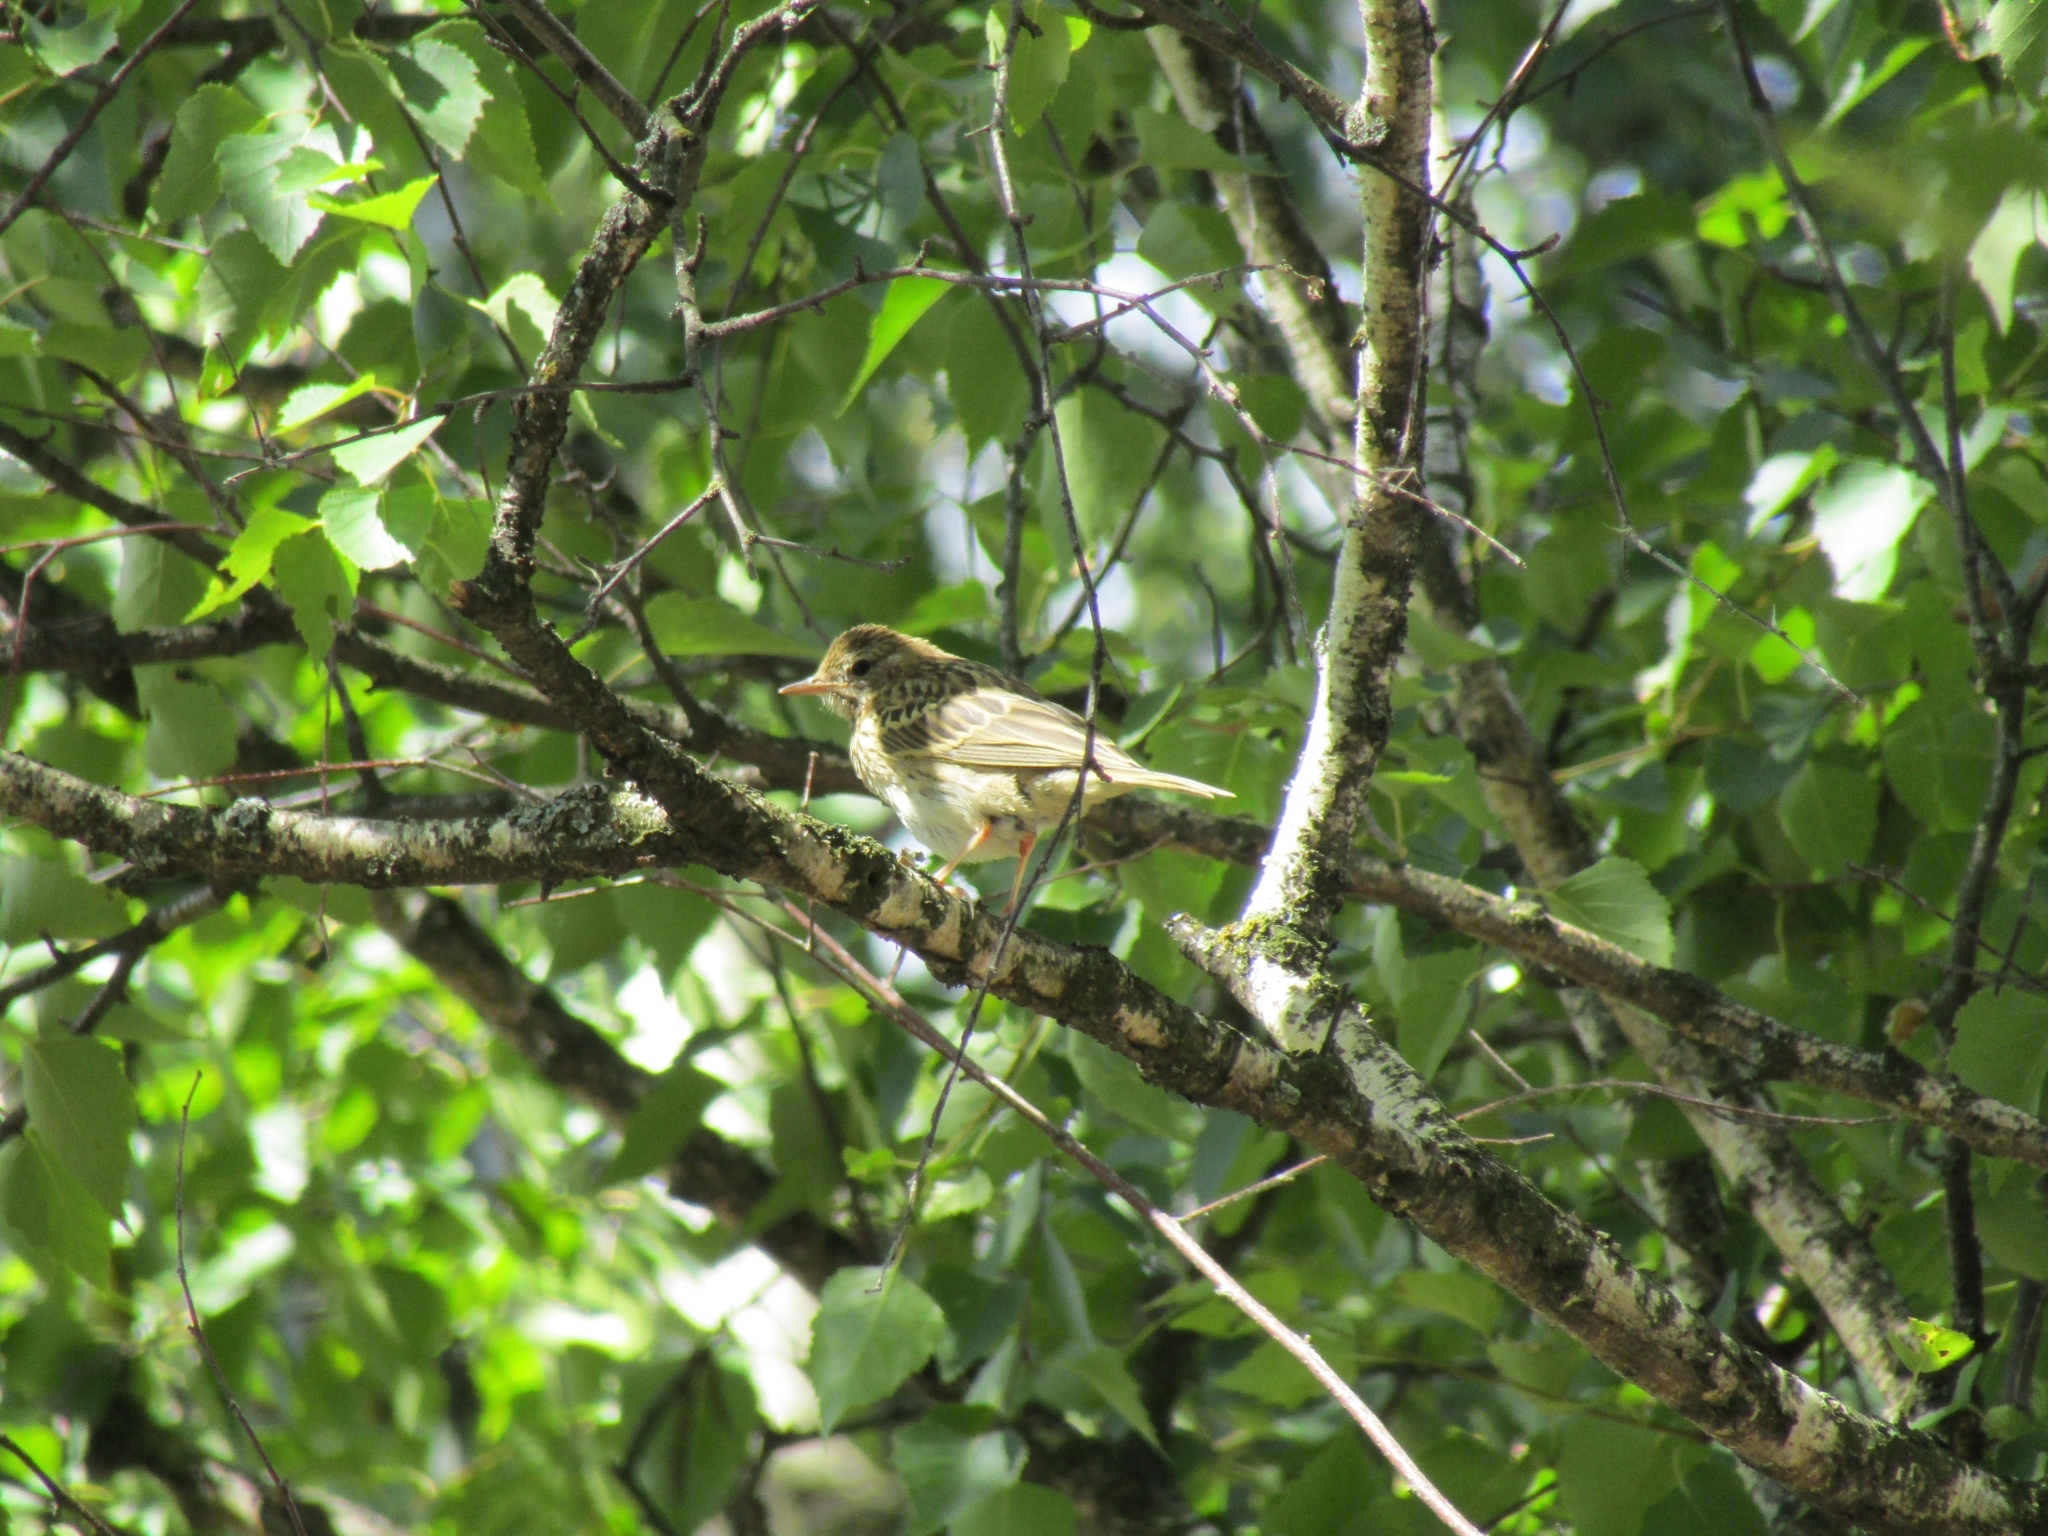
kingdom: Animalia
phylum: Chordata
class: Aves
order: Passeriformes
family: Motacillidae
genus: Anthus
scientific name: Anthus trivialis
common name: Tree pipit
